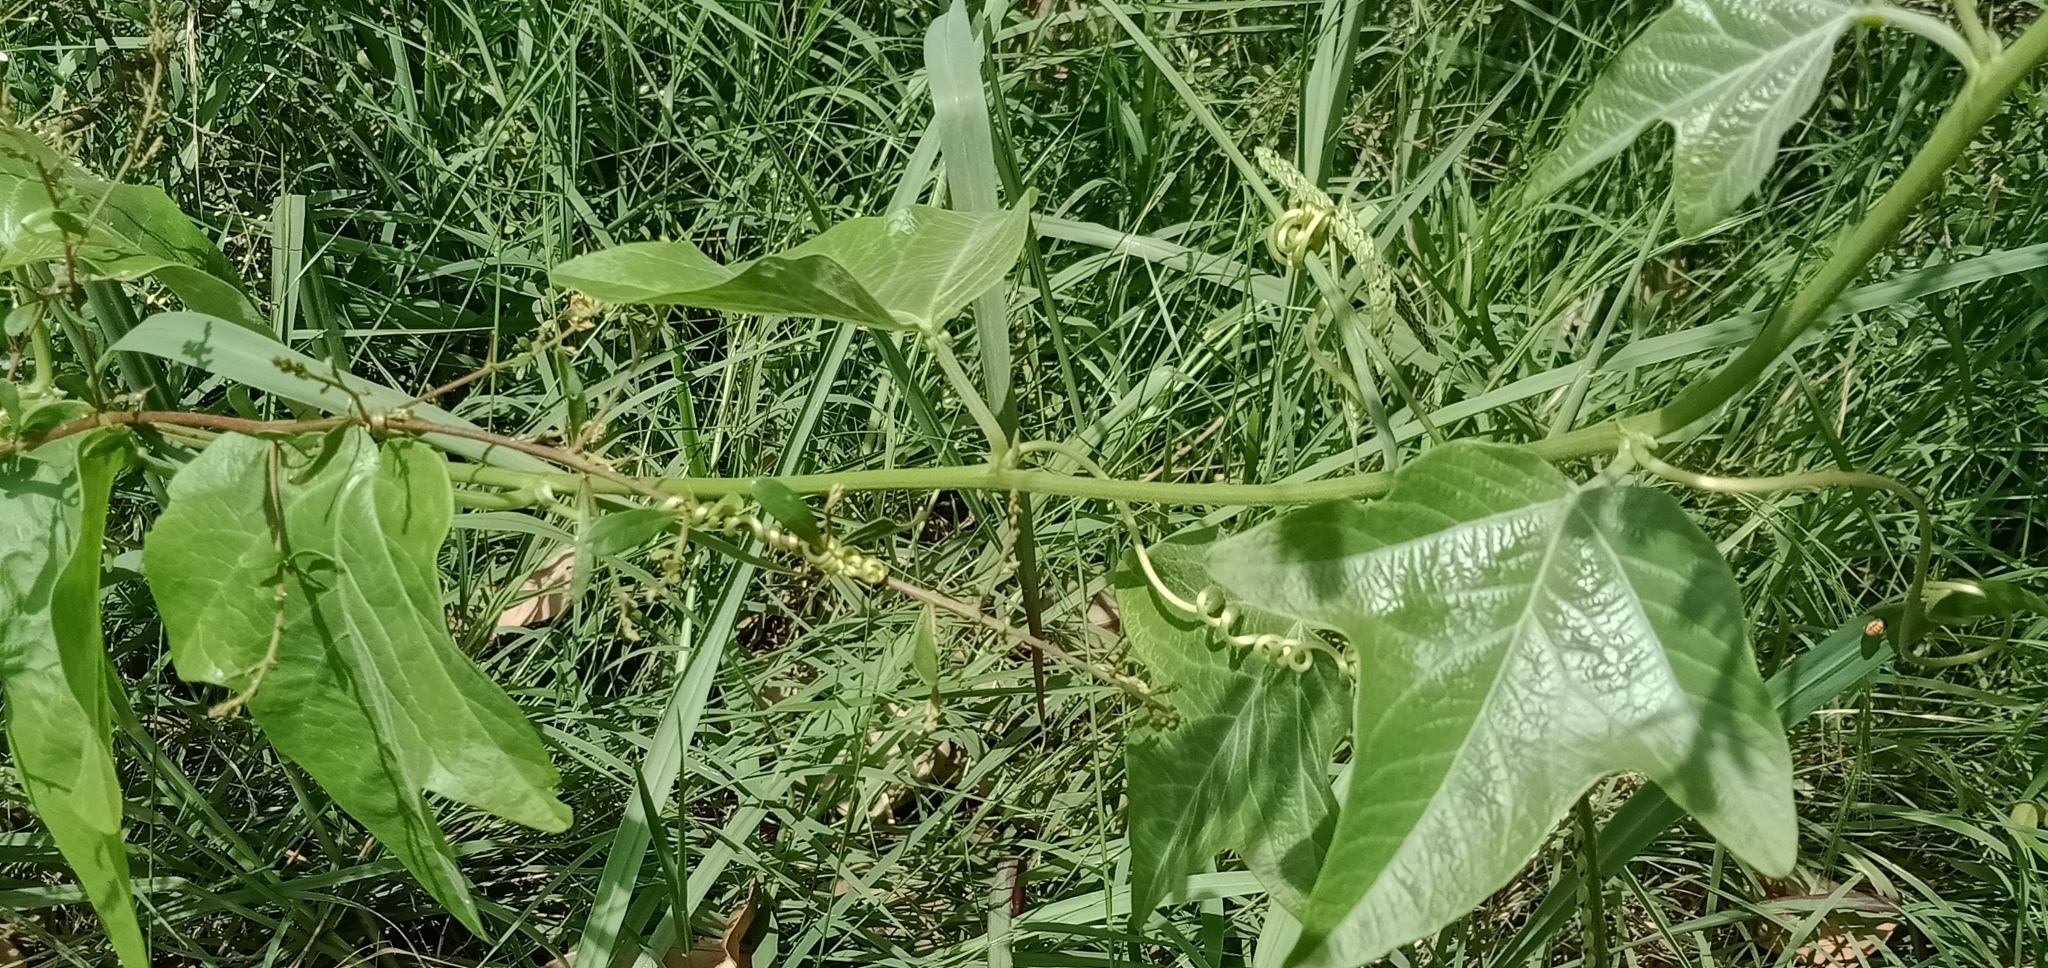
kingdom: Plantae
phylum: Tracheophyta
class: Magnoliopsida
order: Malpighiales
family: Passifloraceae
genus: Passiflora
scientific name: Passiflora herbertiana
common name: Yellow passionflower
